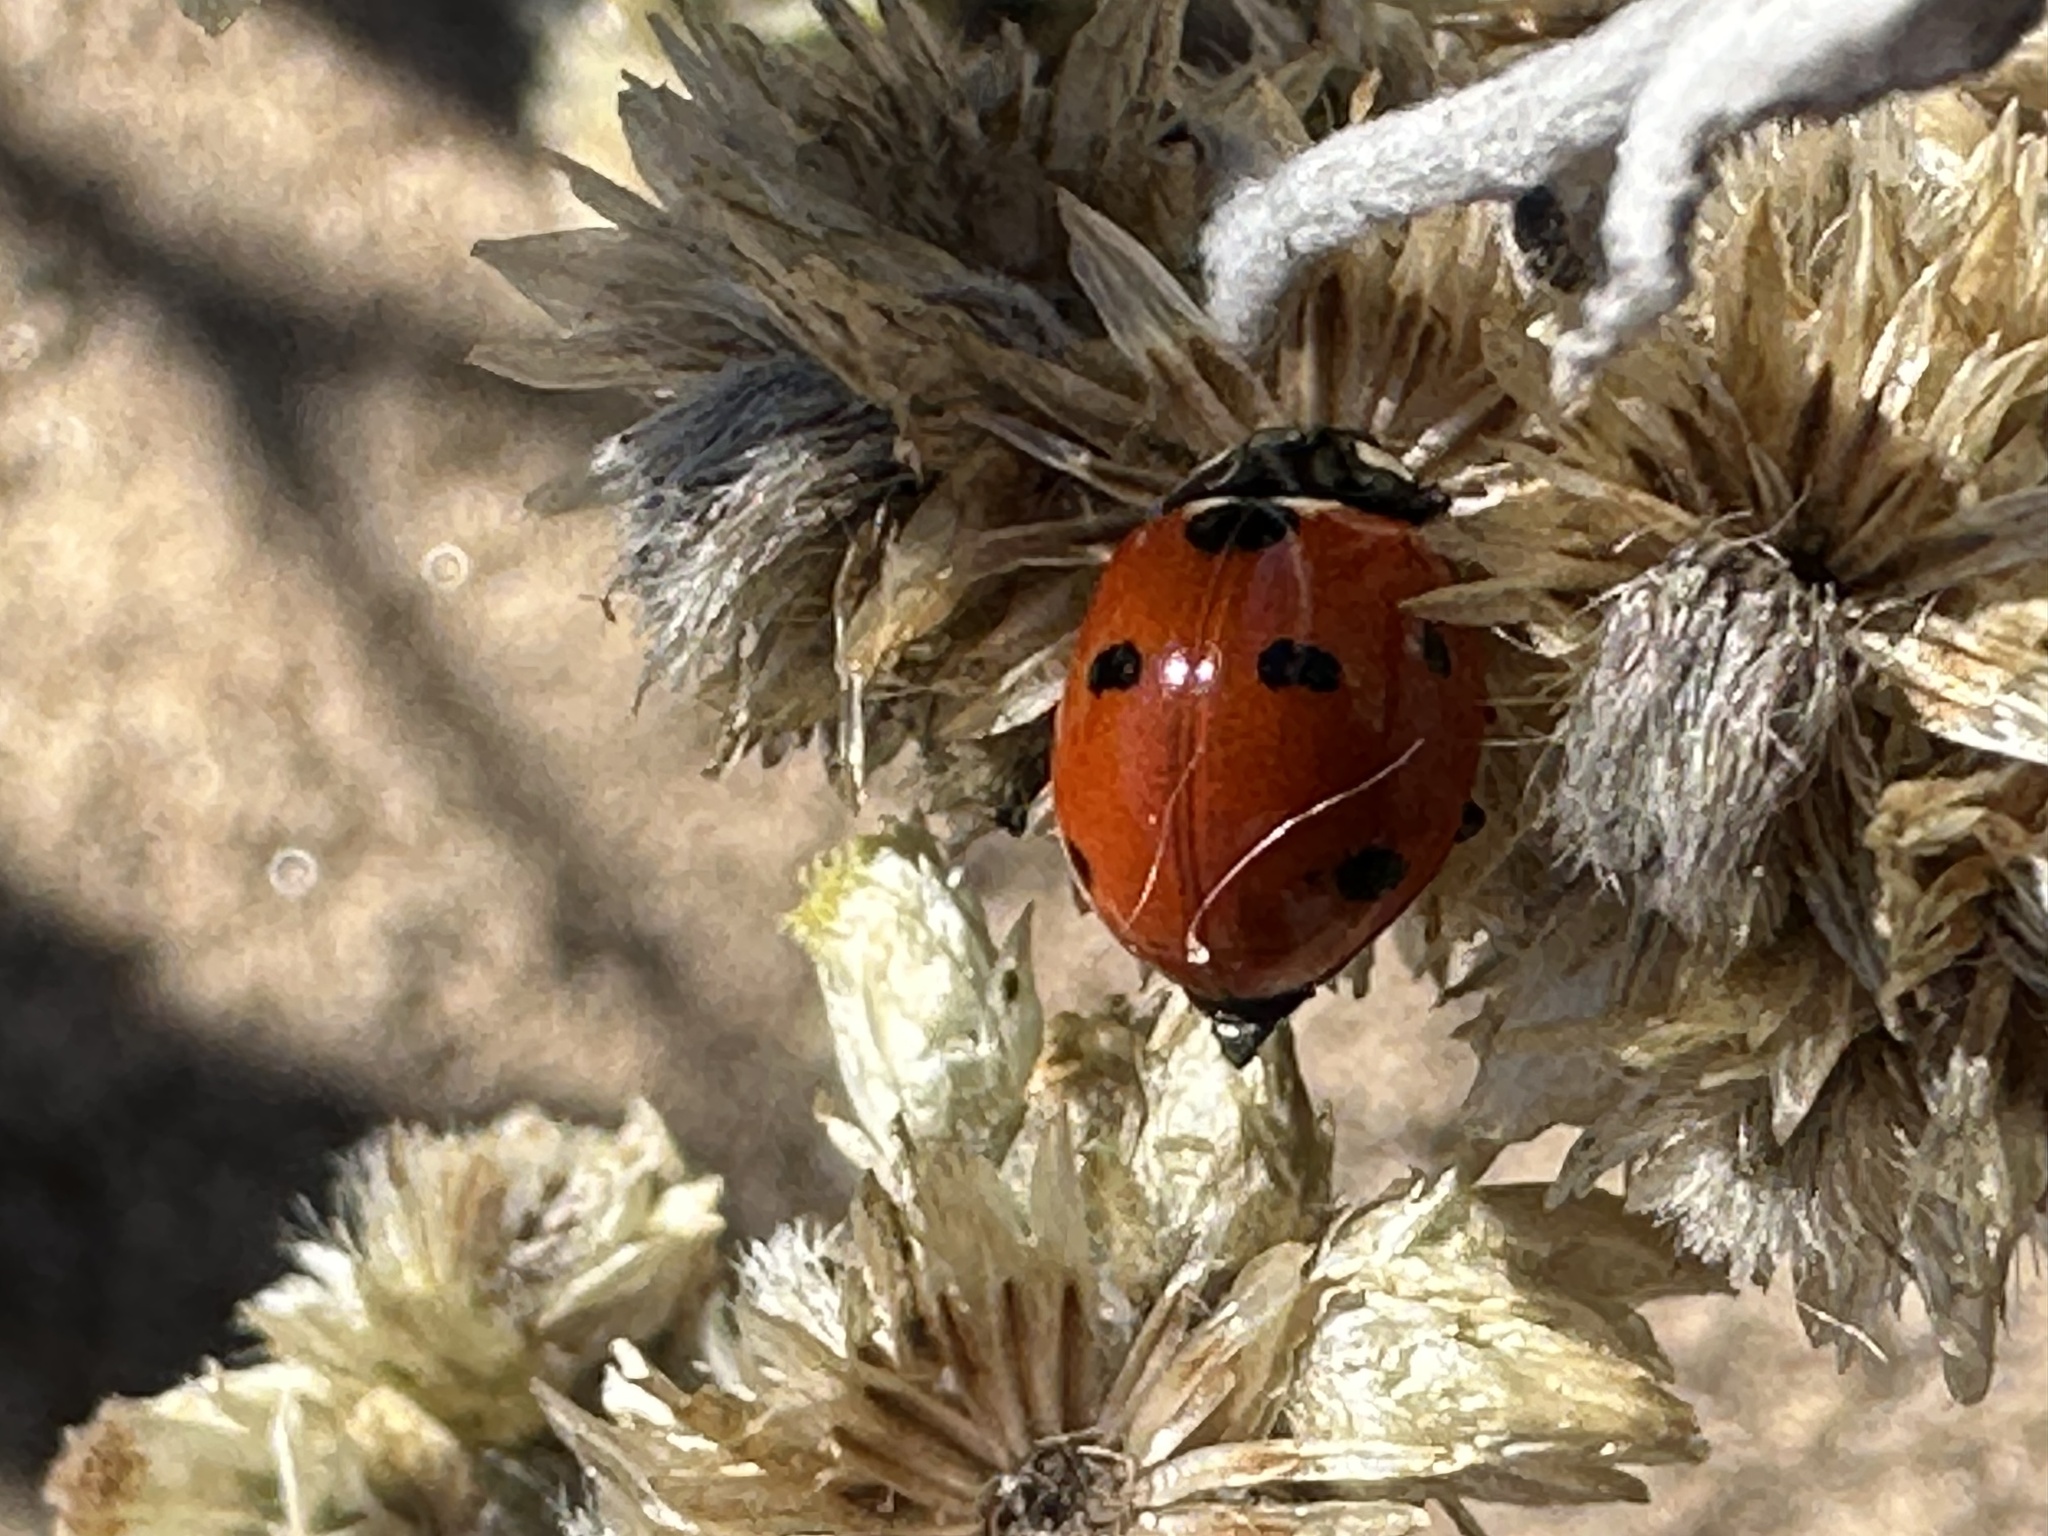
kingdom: Animalia
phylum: Arthropoda
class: Insecta
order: Coleoptera
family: Coccinellidae
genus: Coccinella
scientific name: Coccinella septempunctata
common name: Sevenspotted lady beetle
